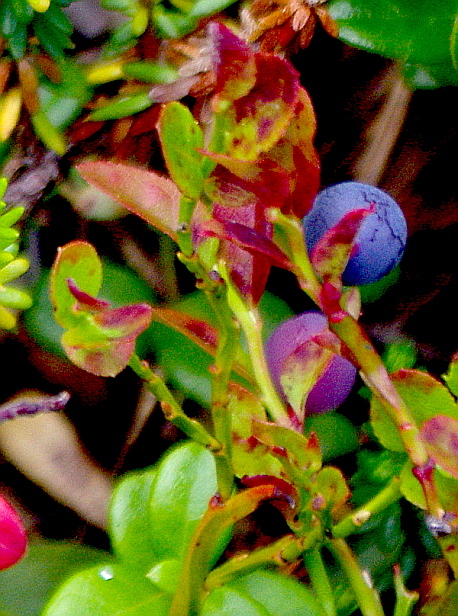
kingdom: Plantae
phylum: Tracheophyta
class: Magnoliopsida
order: Ericales
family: Ericaceae
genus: Vaccinium
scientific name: Vaccinium myrtillus
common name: Bilberry
